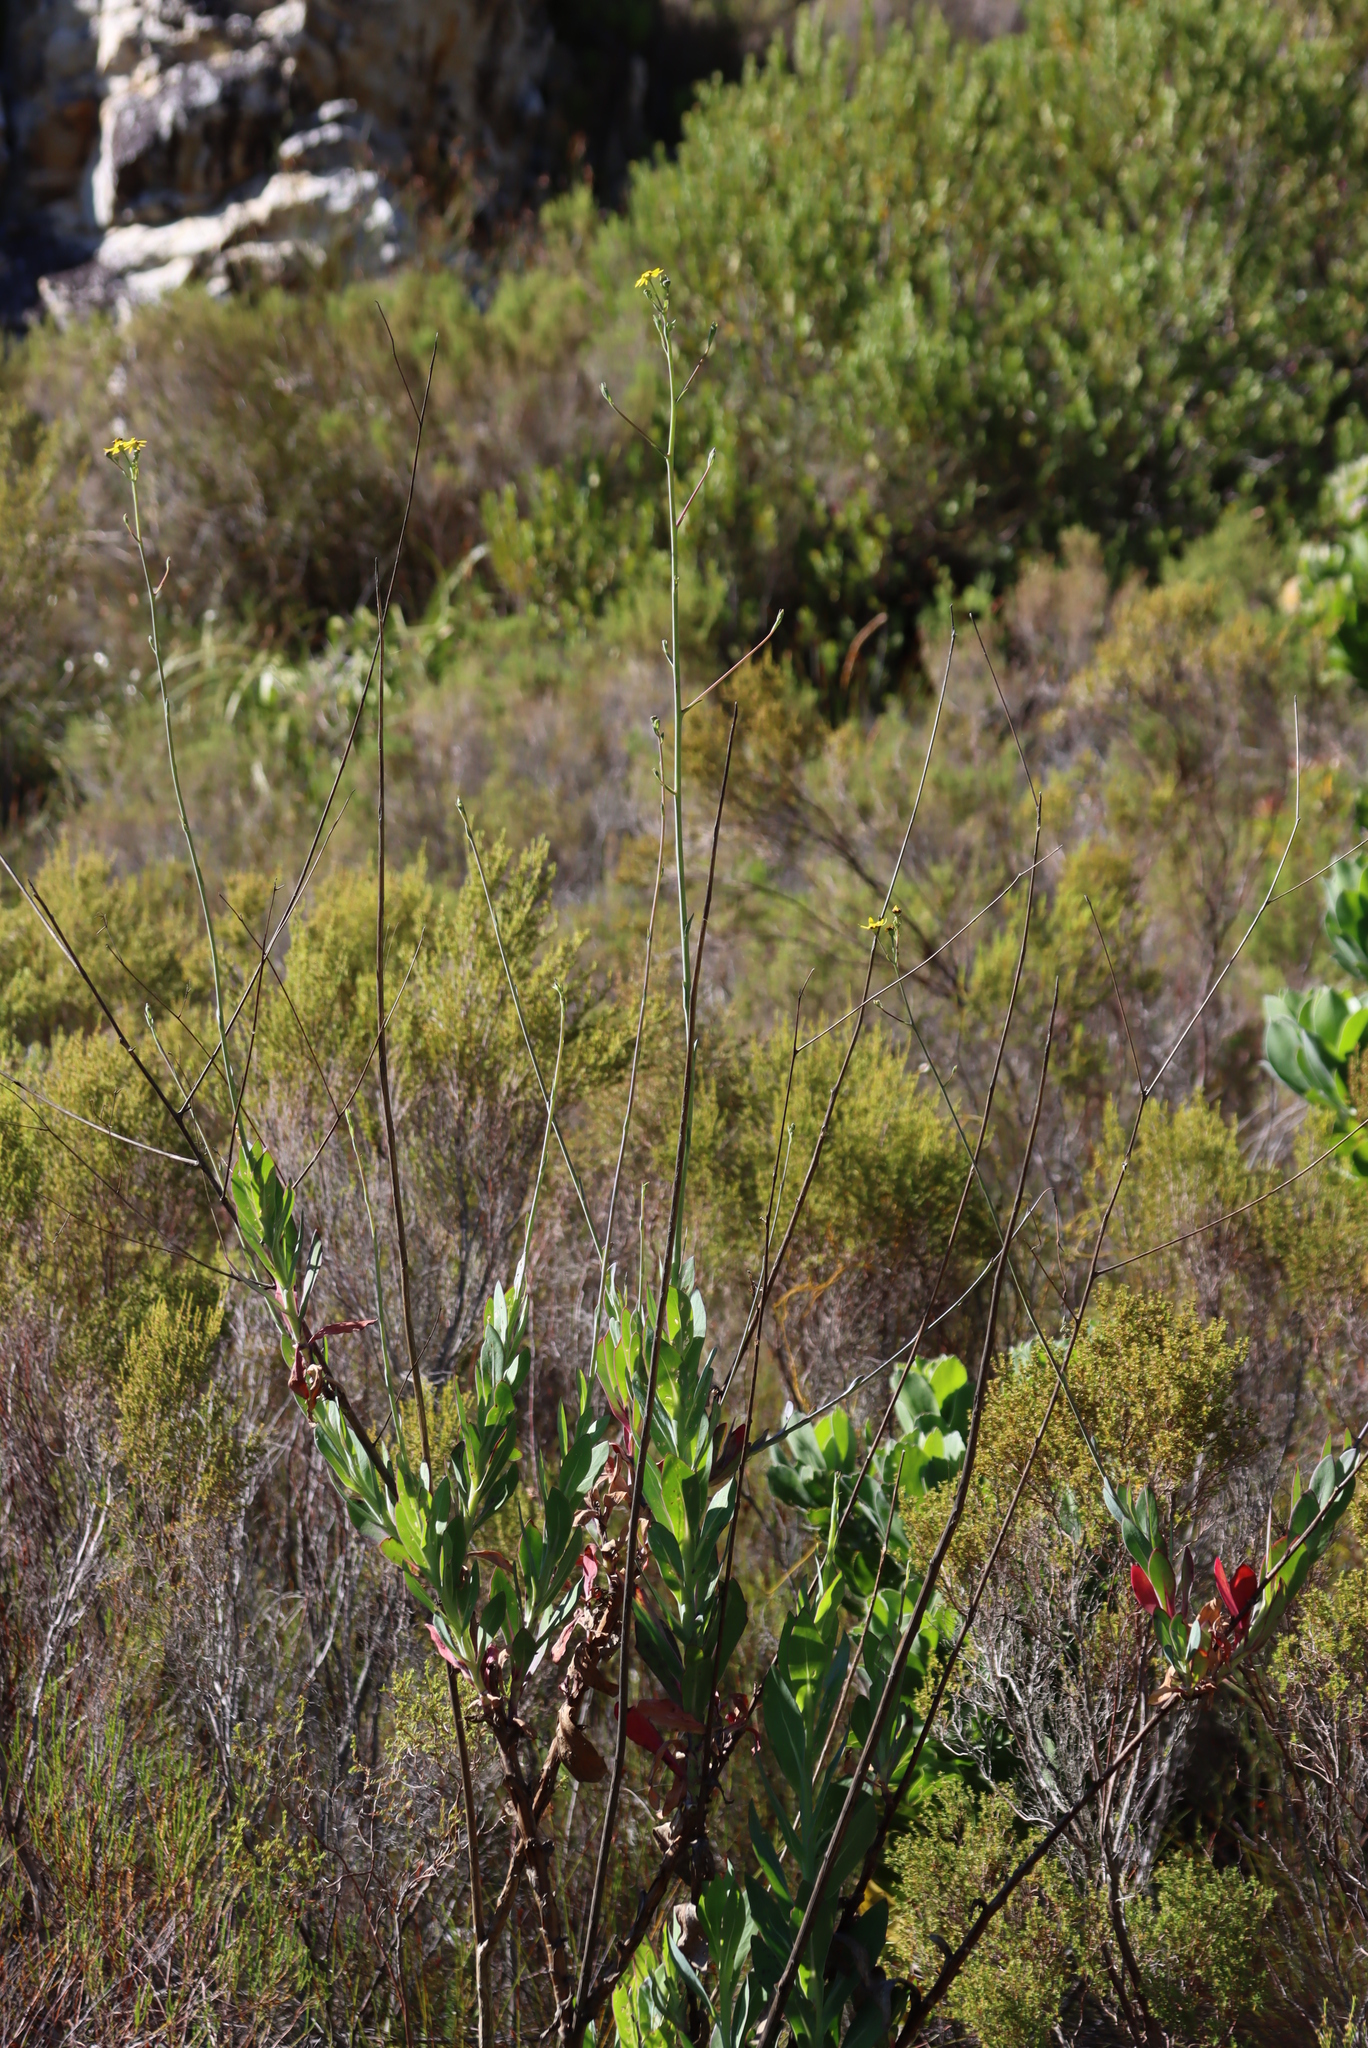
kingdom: Plantae
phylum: Tracheophyta
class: Magnoliopsida
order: Asterales
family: Asteraceae
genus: Othonna
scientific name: Othonna quinquedentata
